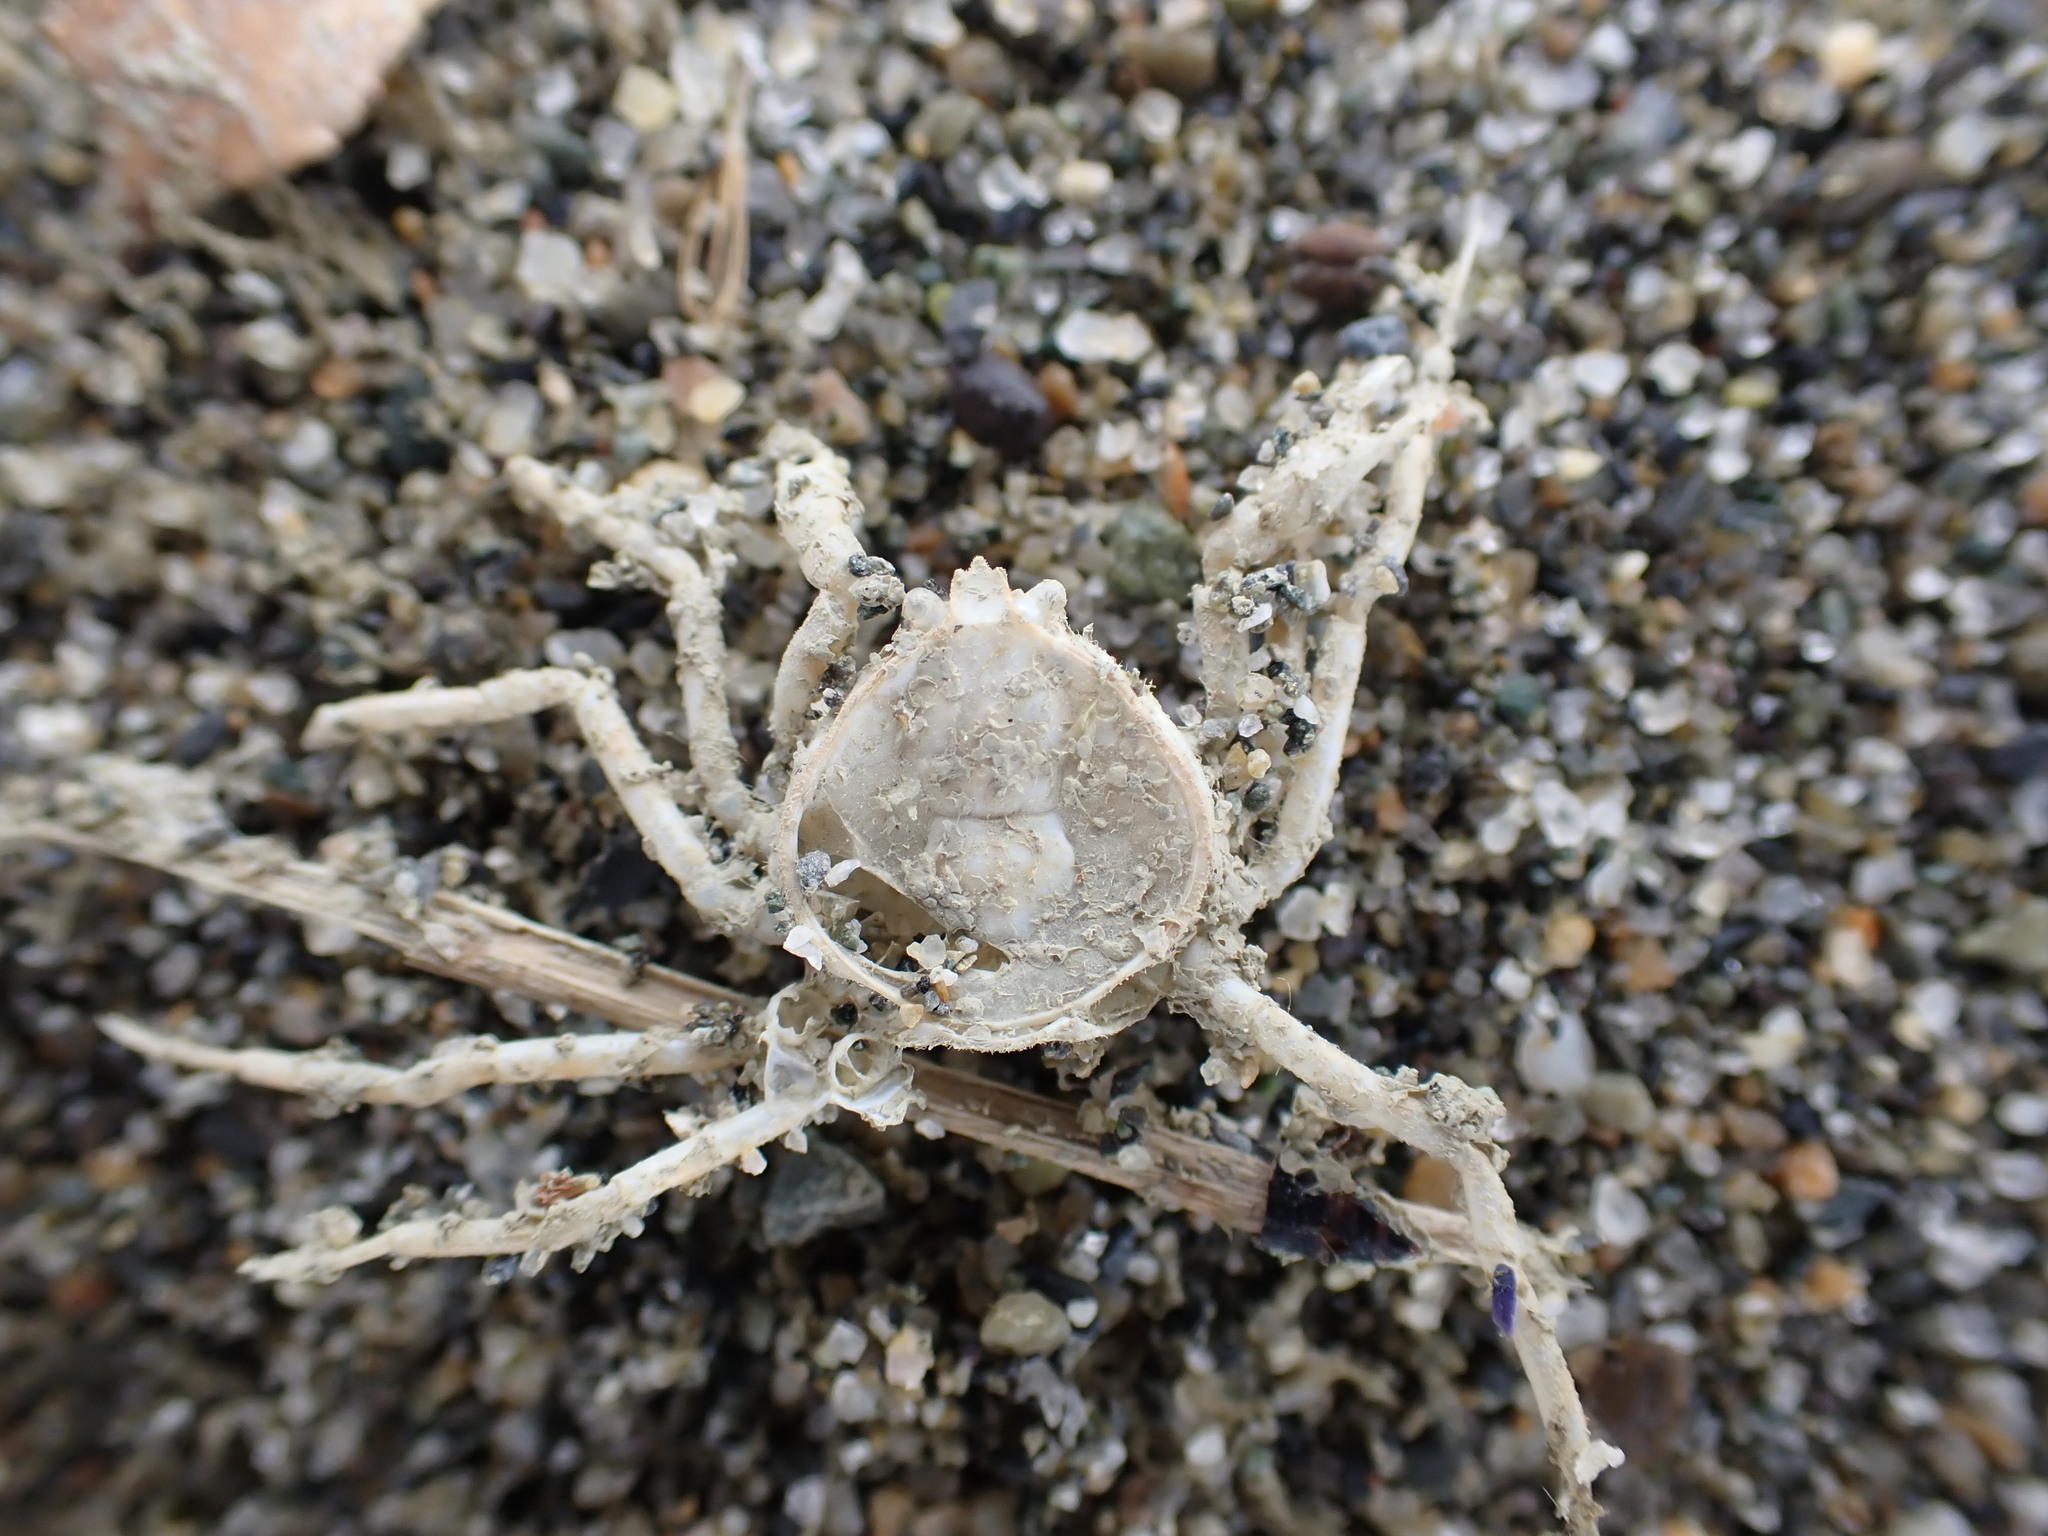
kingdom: Animalia
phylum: Arthropoda
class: Malacostraca
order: Decapoda
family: Hymenosomatidae
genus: Halicarcinus
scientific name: Halicarcinus whitei
